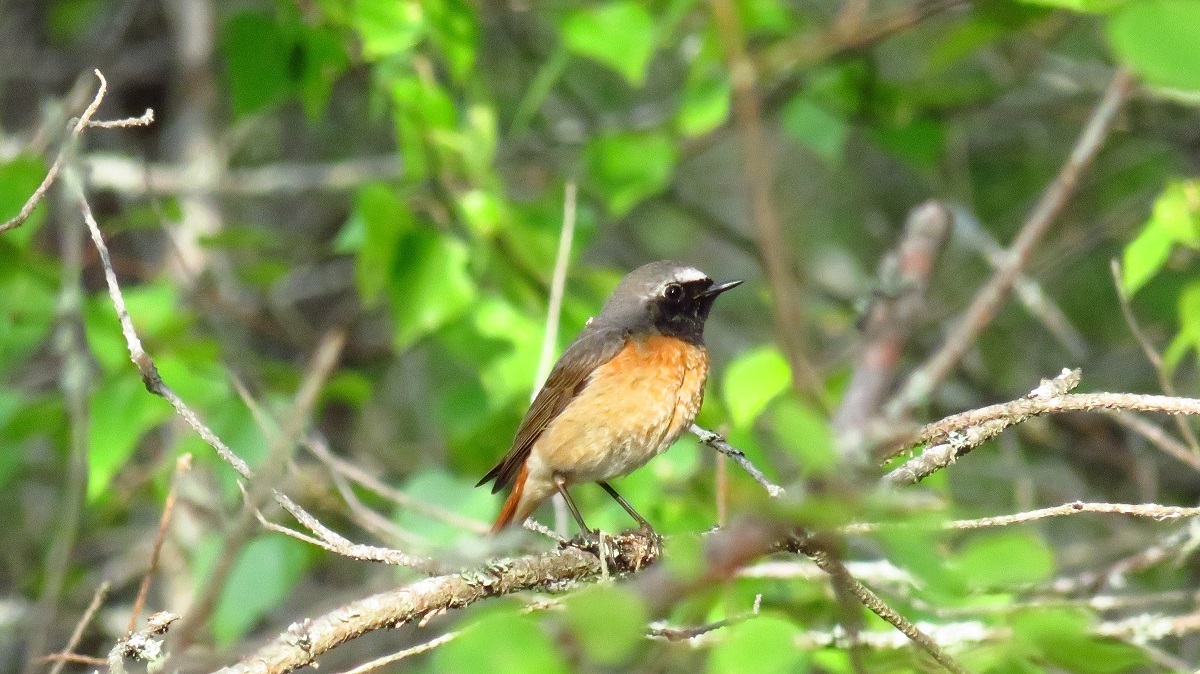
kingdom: Animalia
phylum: Chordata
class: Aves
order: Passeriformes
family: Muscicapidae
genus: Phoenicurus
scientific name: Phoenicurus phoenicurus
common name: Common redstart
